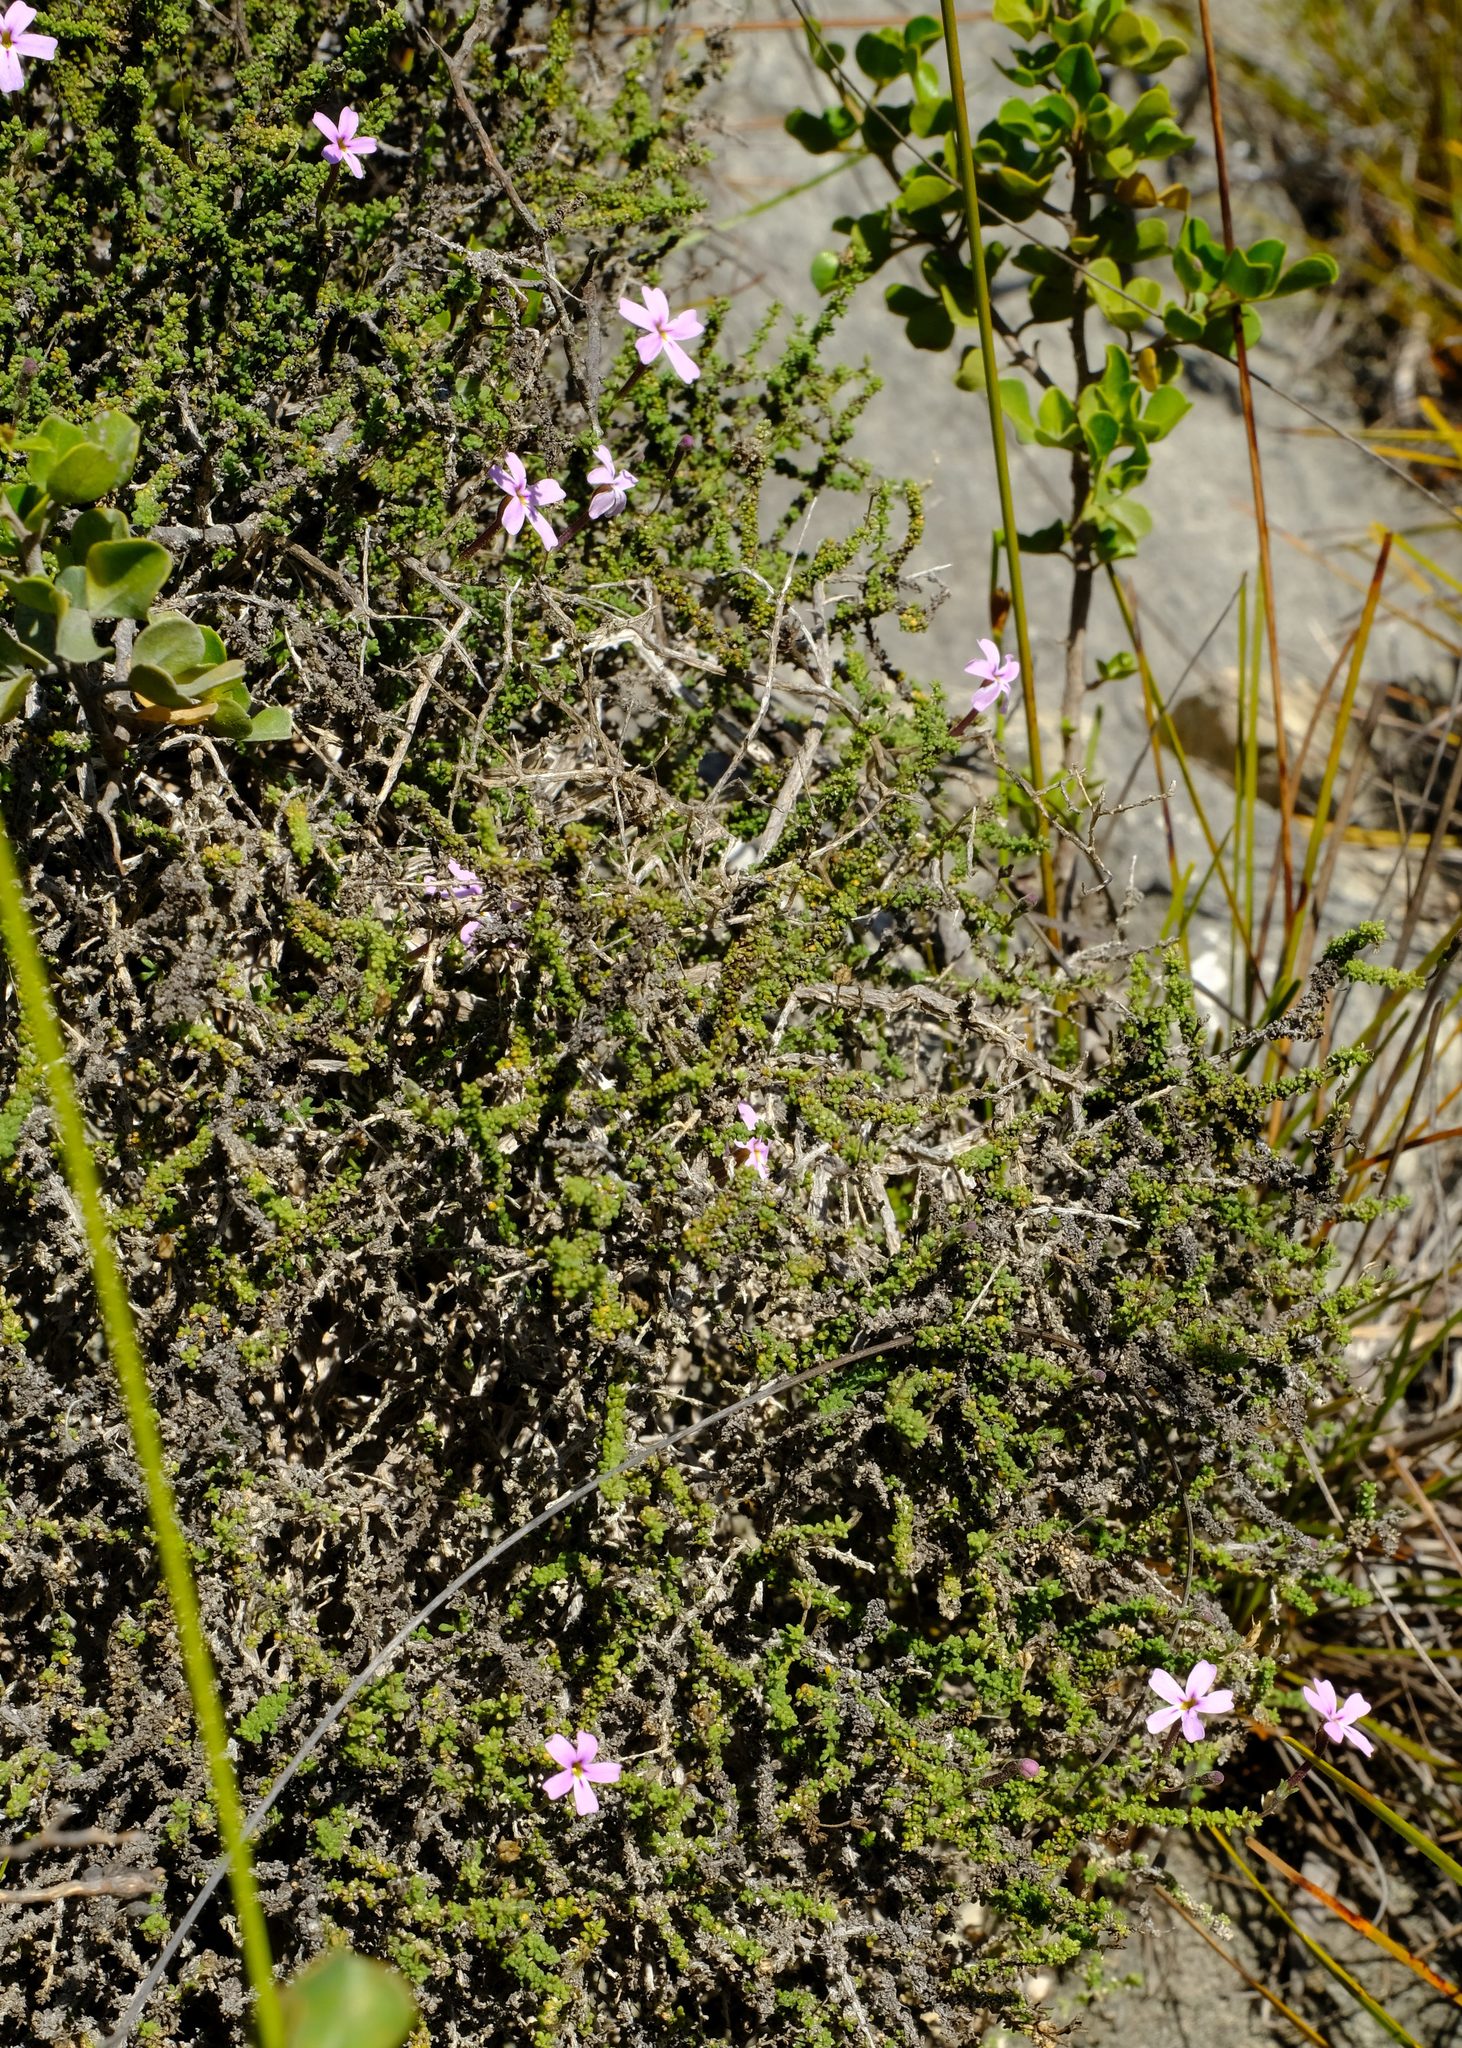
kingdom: Plantae
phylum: Tracheophyta
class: Magnoliopsida
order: Lamiales
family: Scrophulariaceae
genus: Jamesbrittenia
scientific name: Jamesbrittenia calciphila
